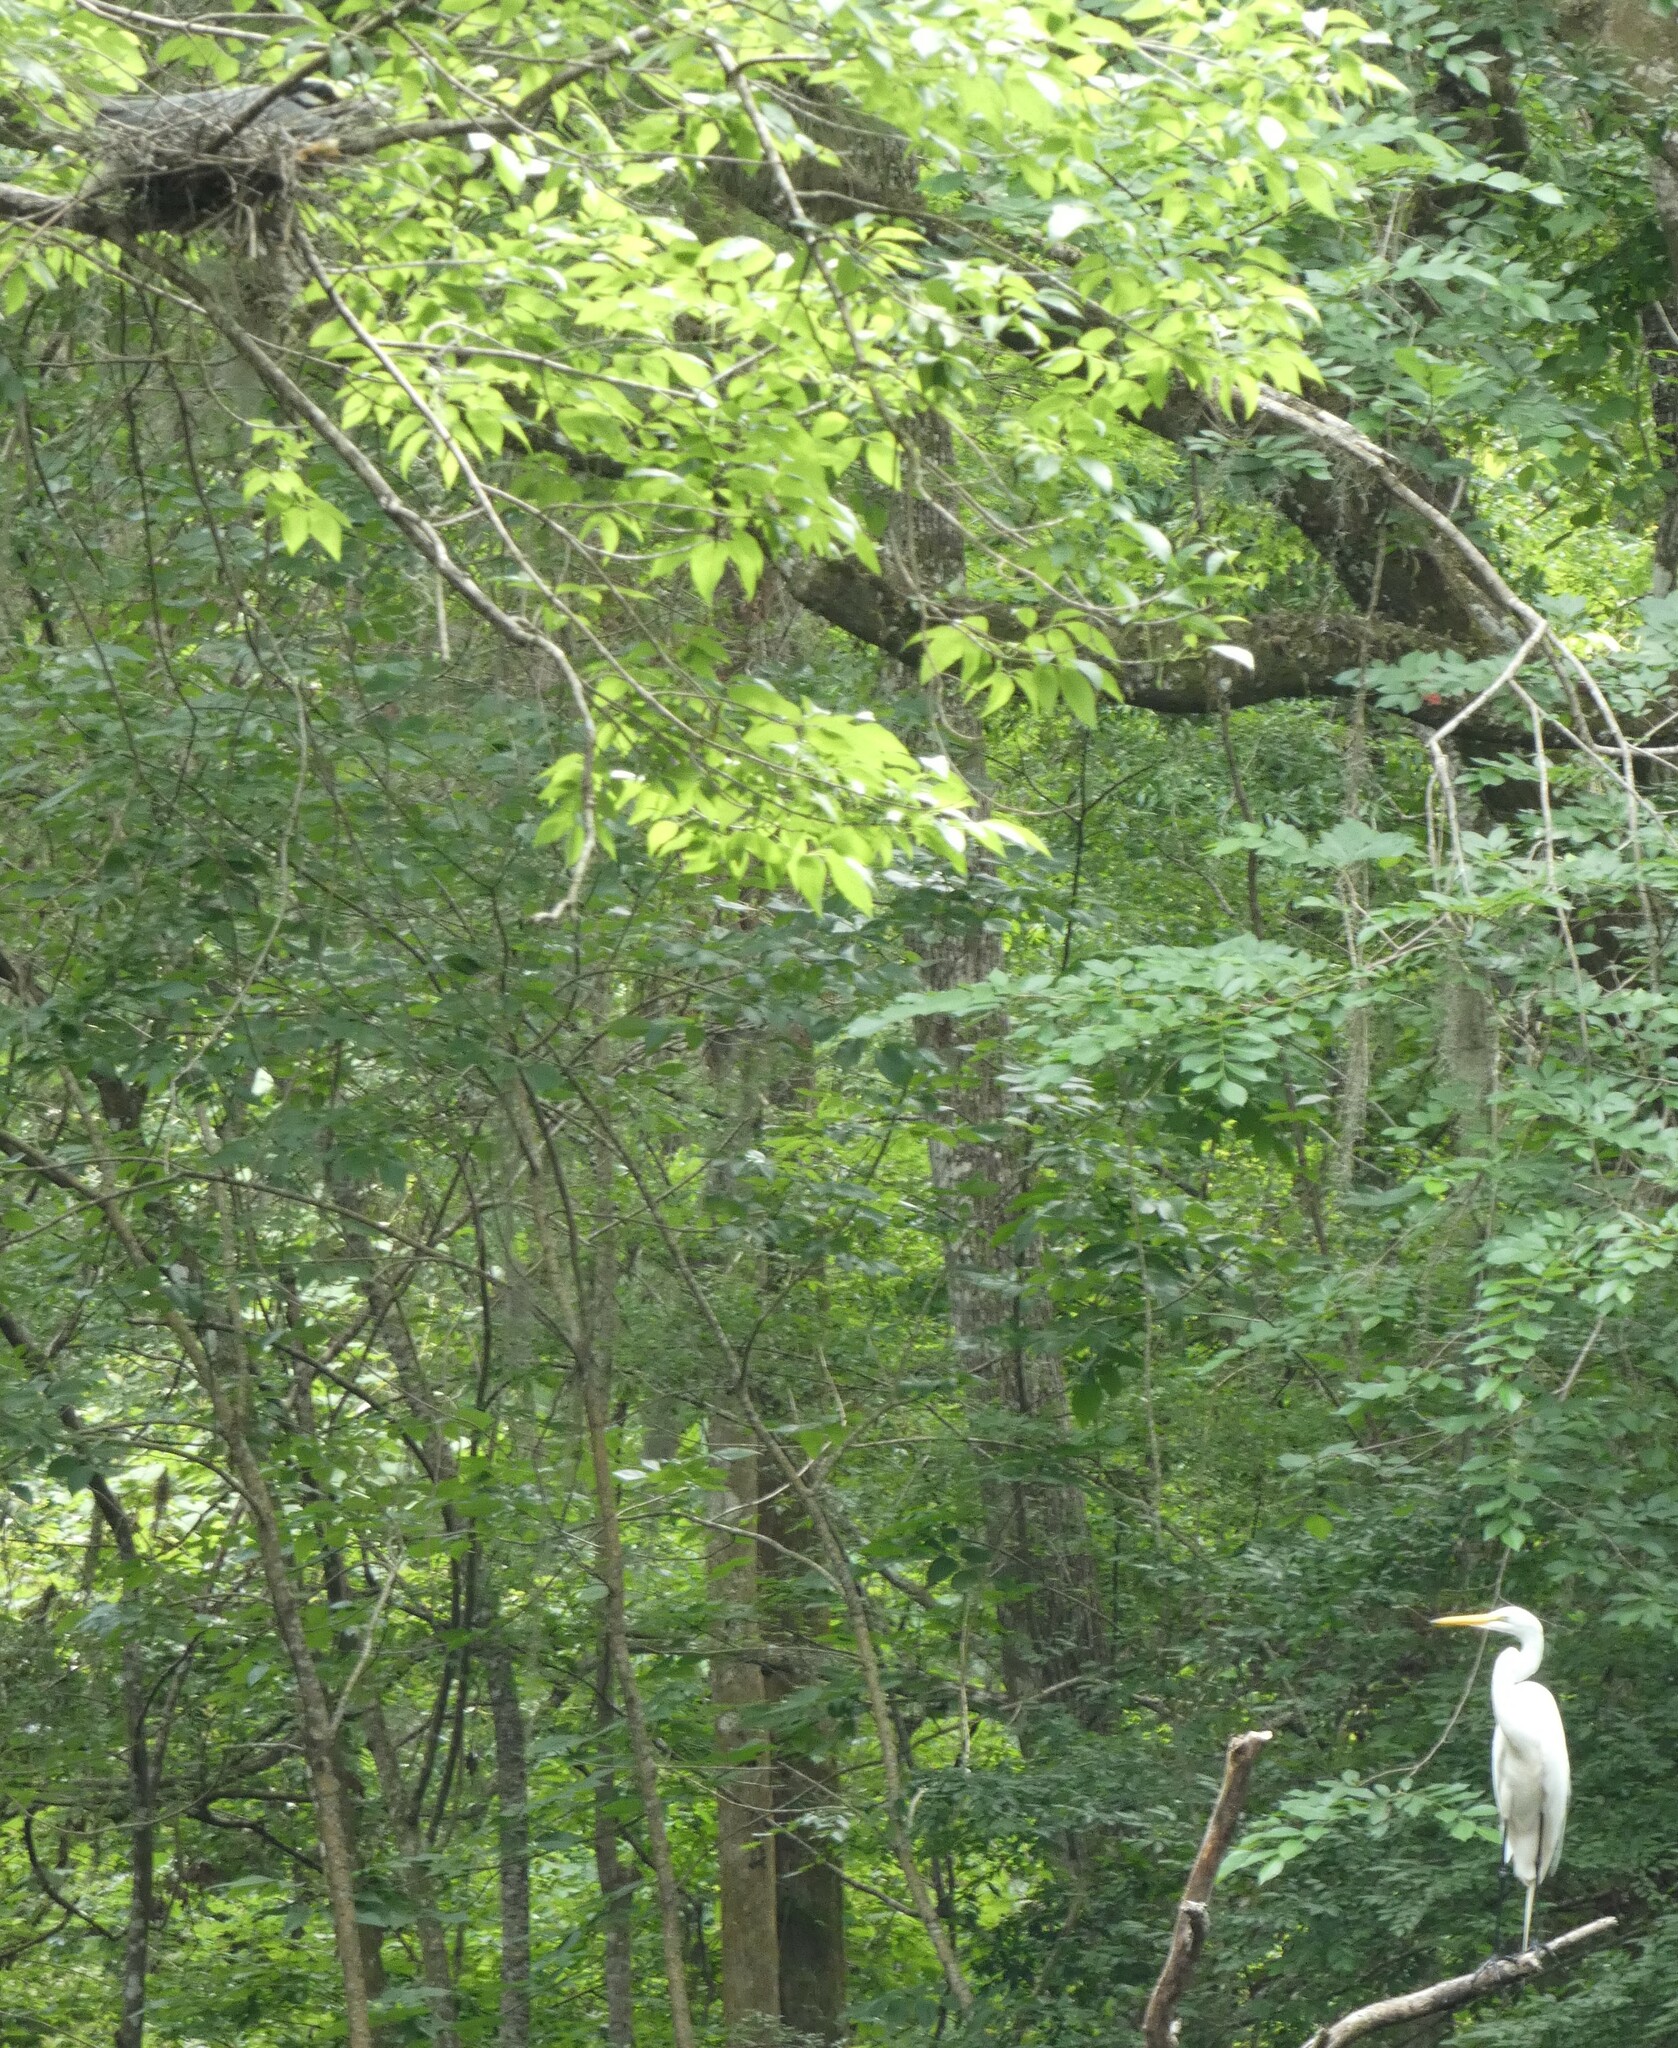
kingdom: Animalia
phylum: Chordata
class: Aves
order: Pelecaniformes
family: Ardeidae
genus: Ardea
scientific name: Ardea alba
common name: Great egret
